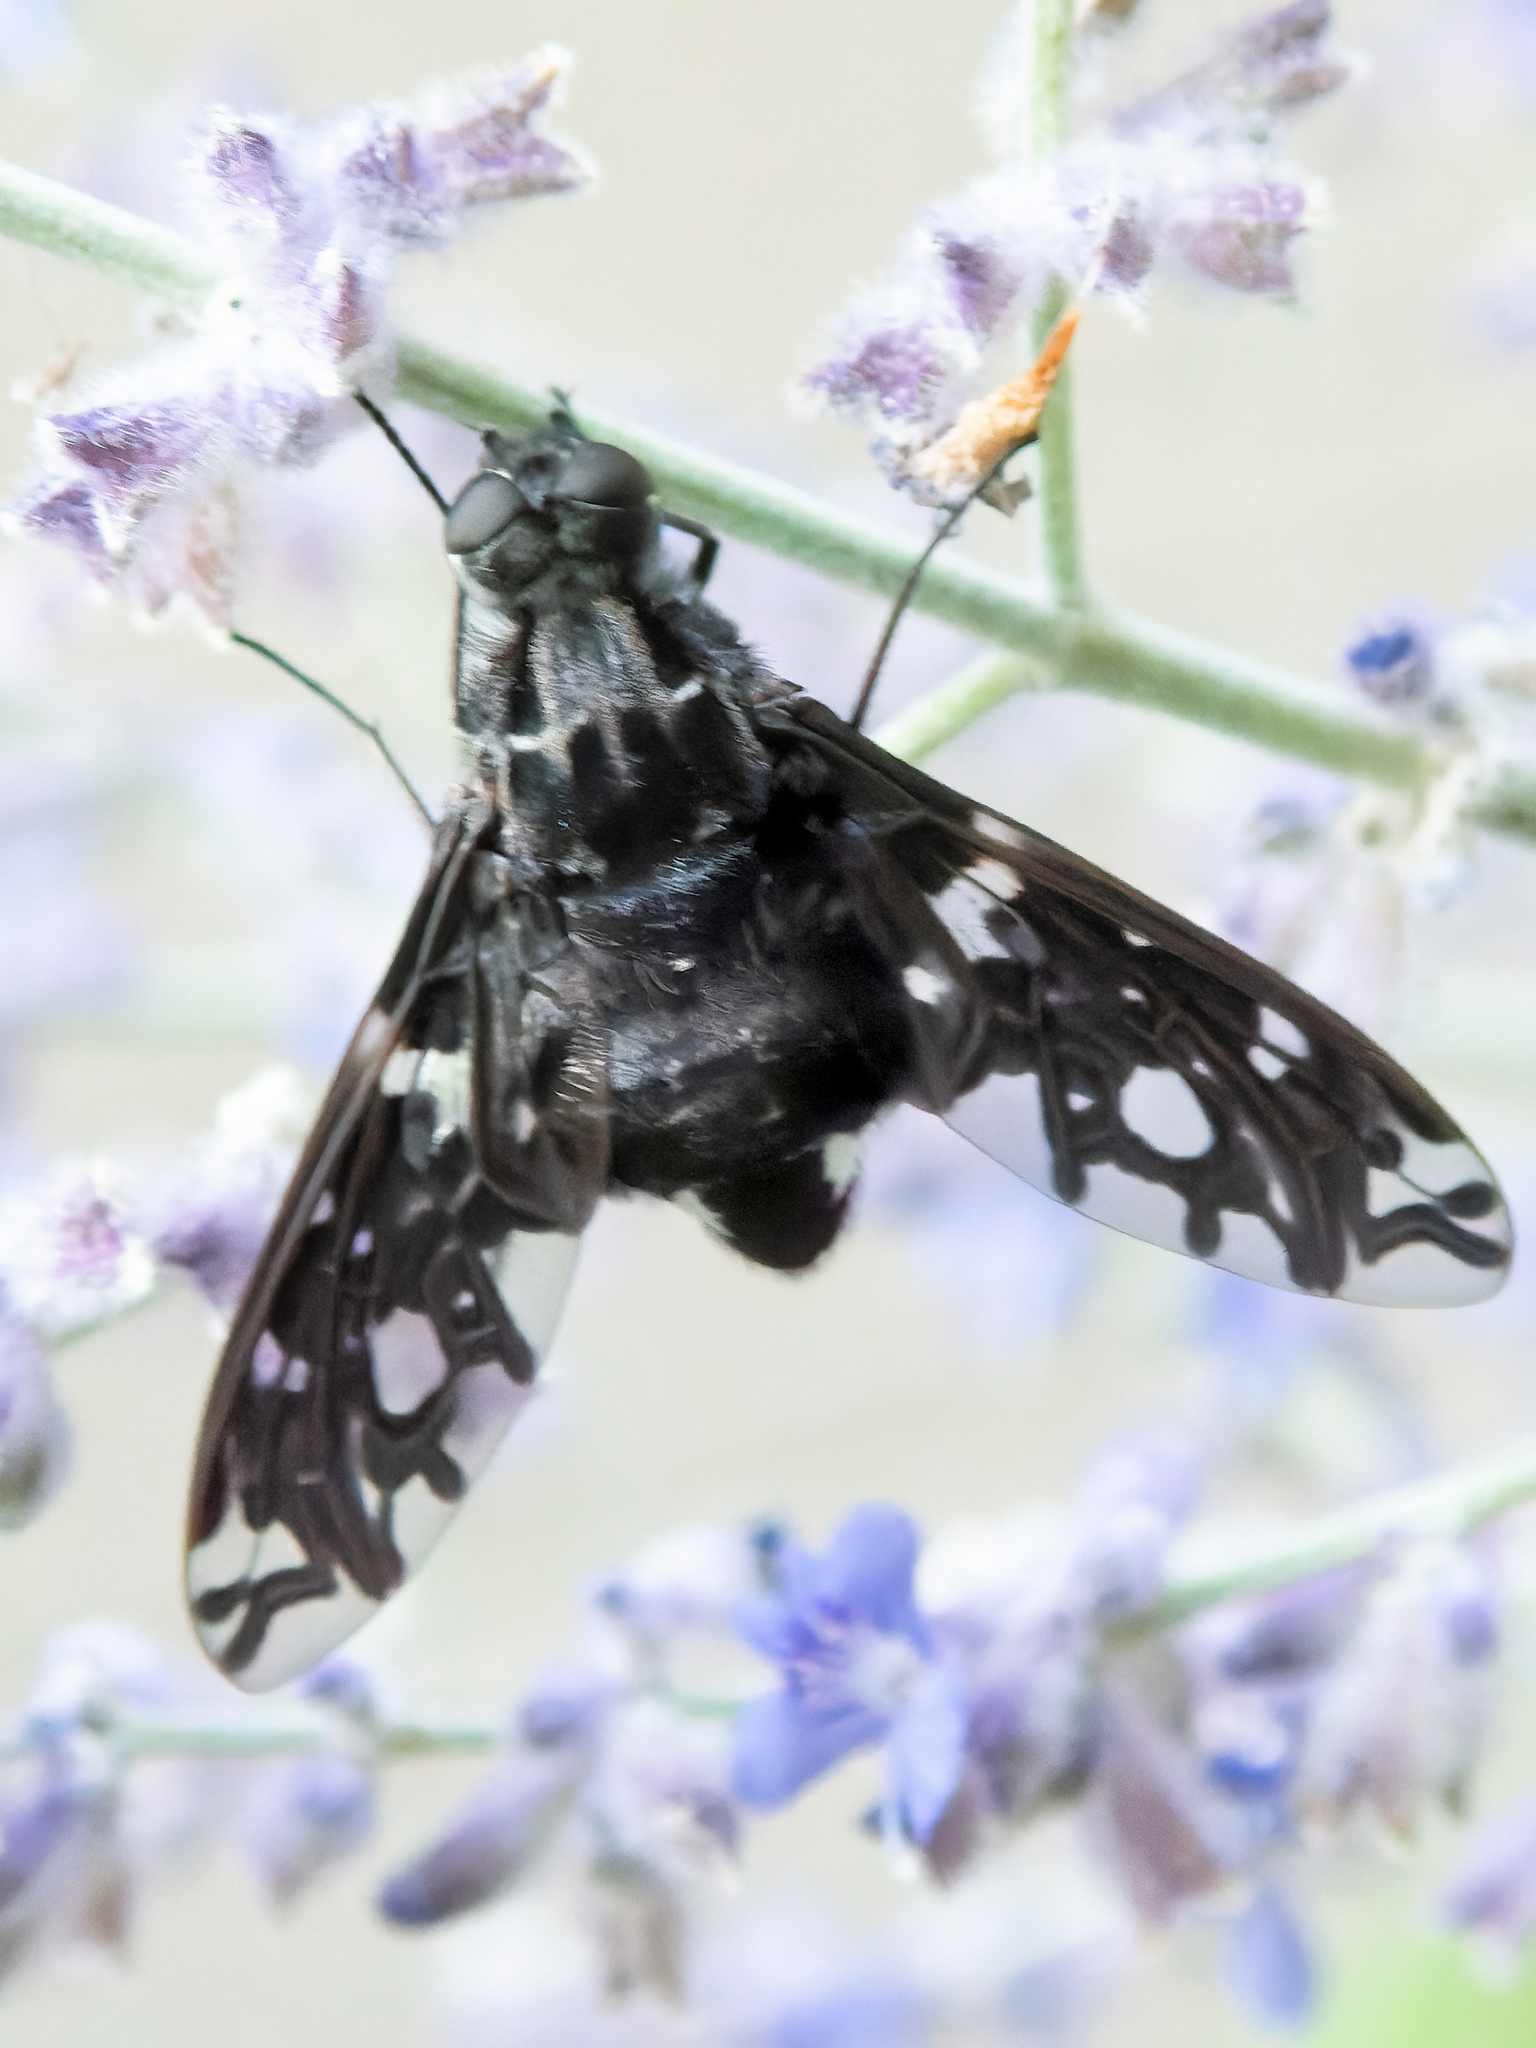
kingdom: Animalia
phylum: Arthropoda
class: Insecta
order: Diptera
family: Bombyliidae
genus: Xenox
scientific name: Xenox tigrinus
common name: Tiger bee fly
